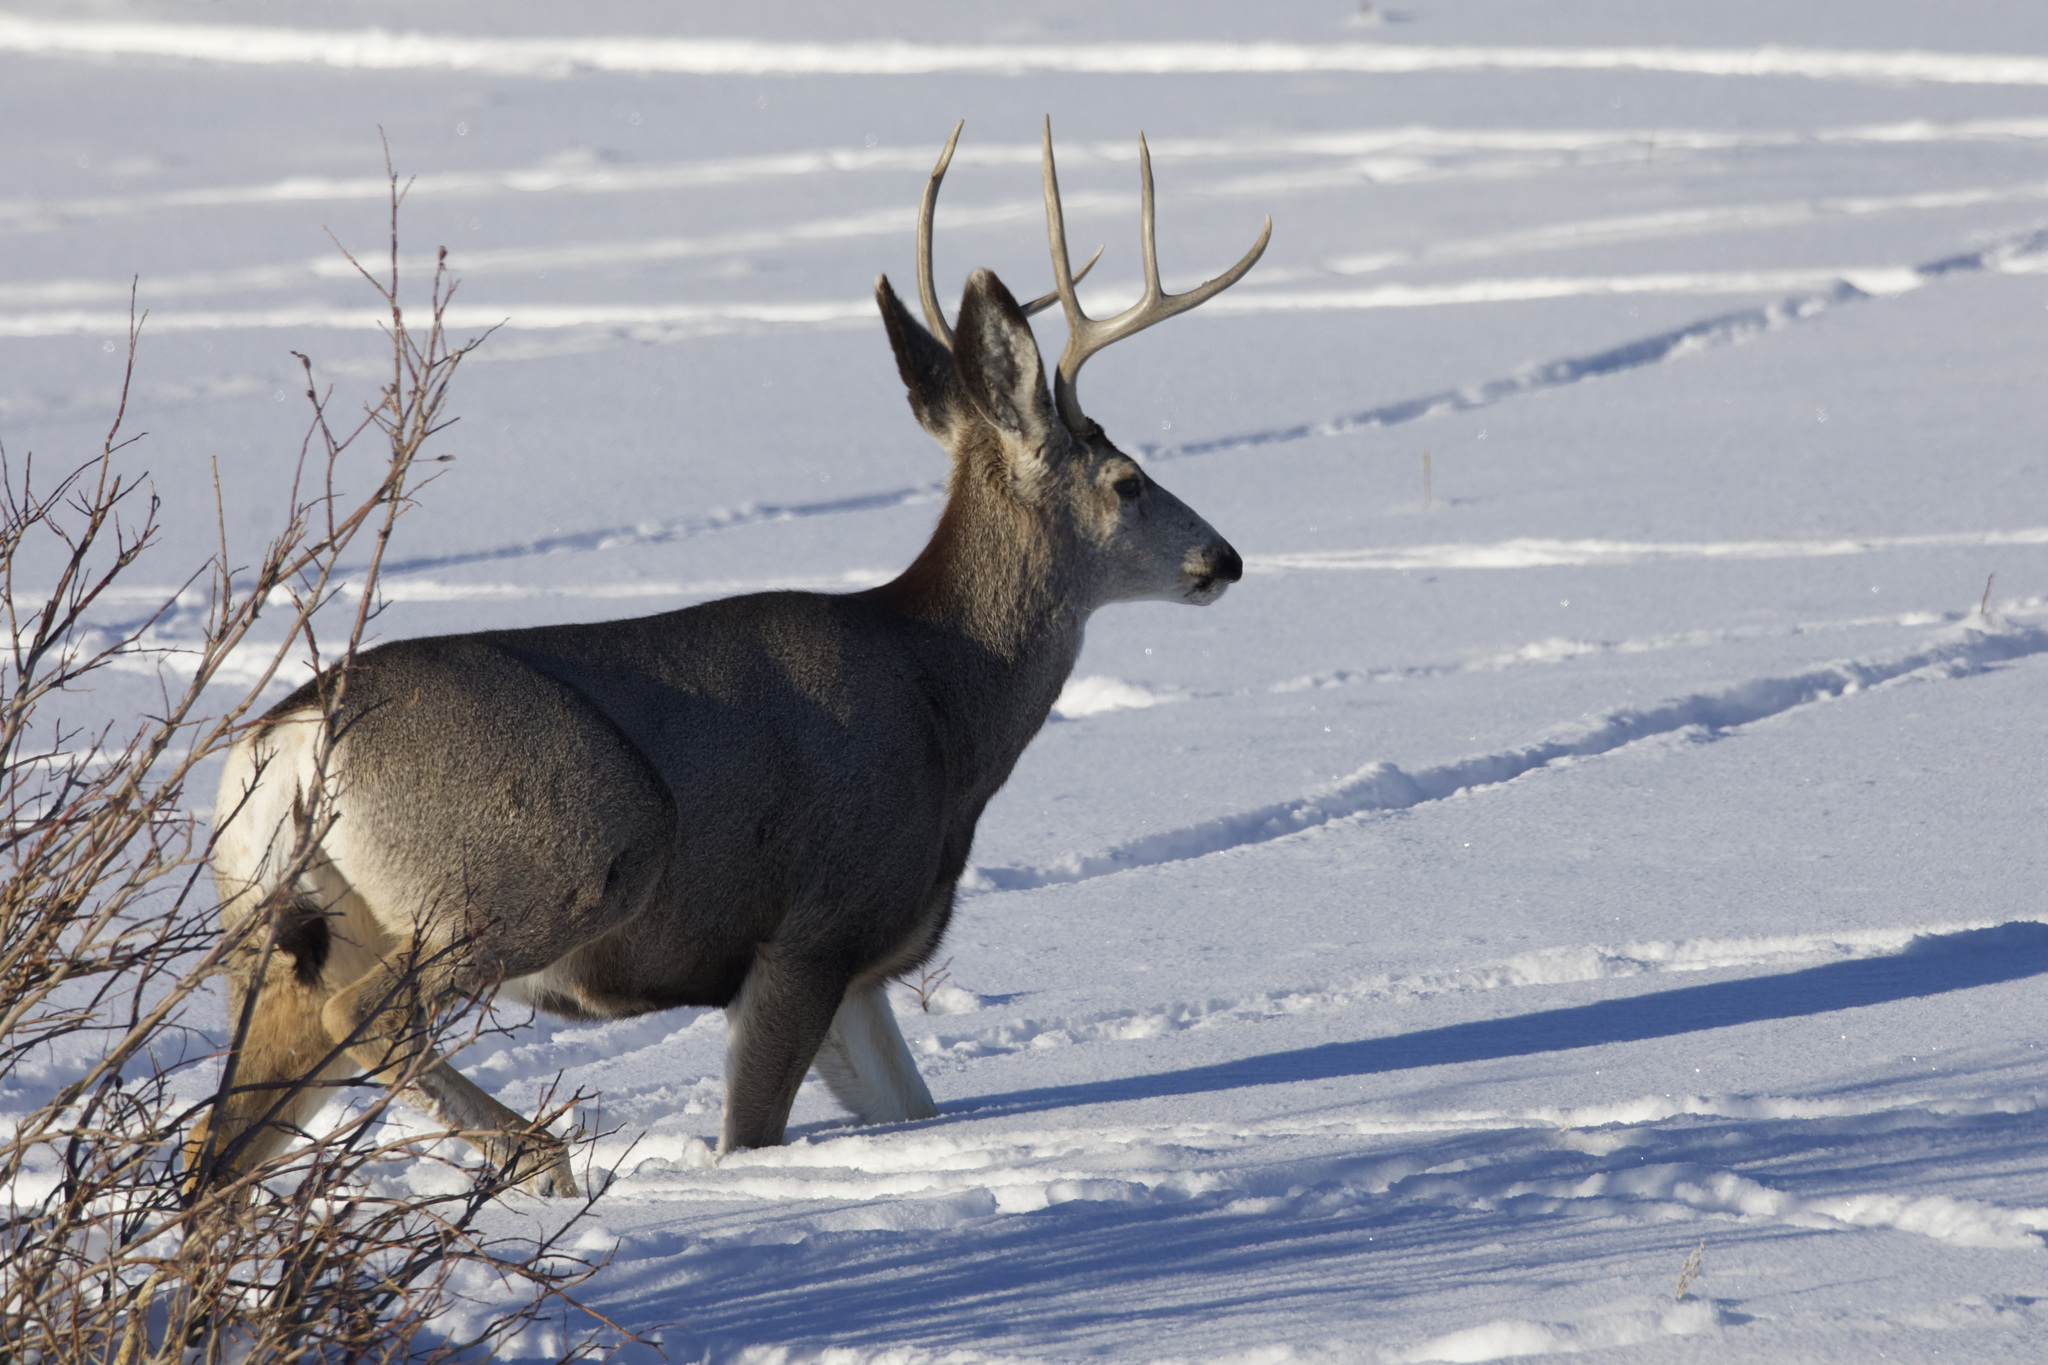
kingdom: Animalia
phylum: Chordata
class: Mammalia
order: Artiodactyla
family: Cervidae
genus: Odocoileus
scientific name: Odocoileus hemionus
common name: Mule deer
